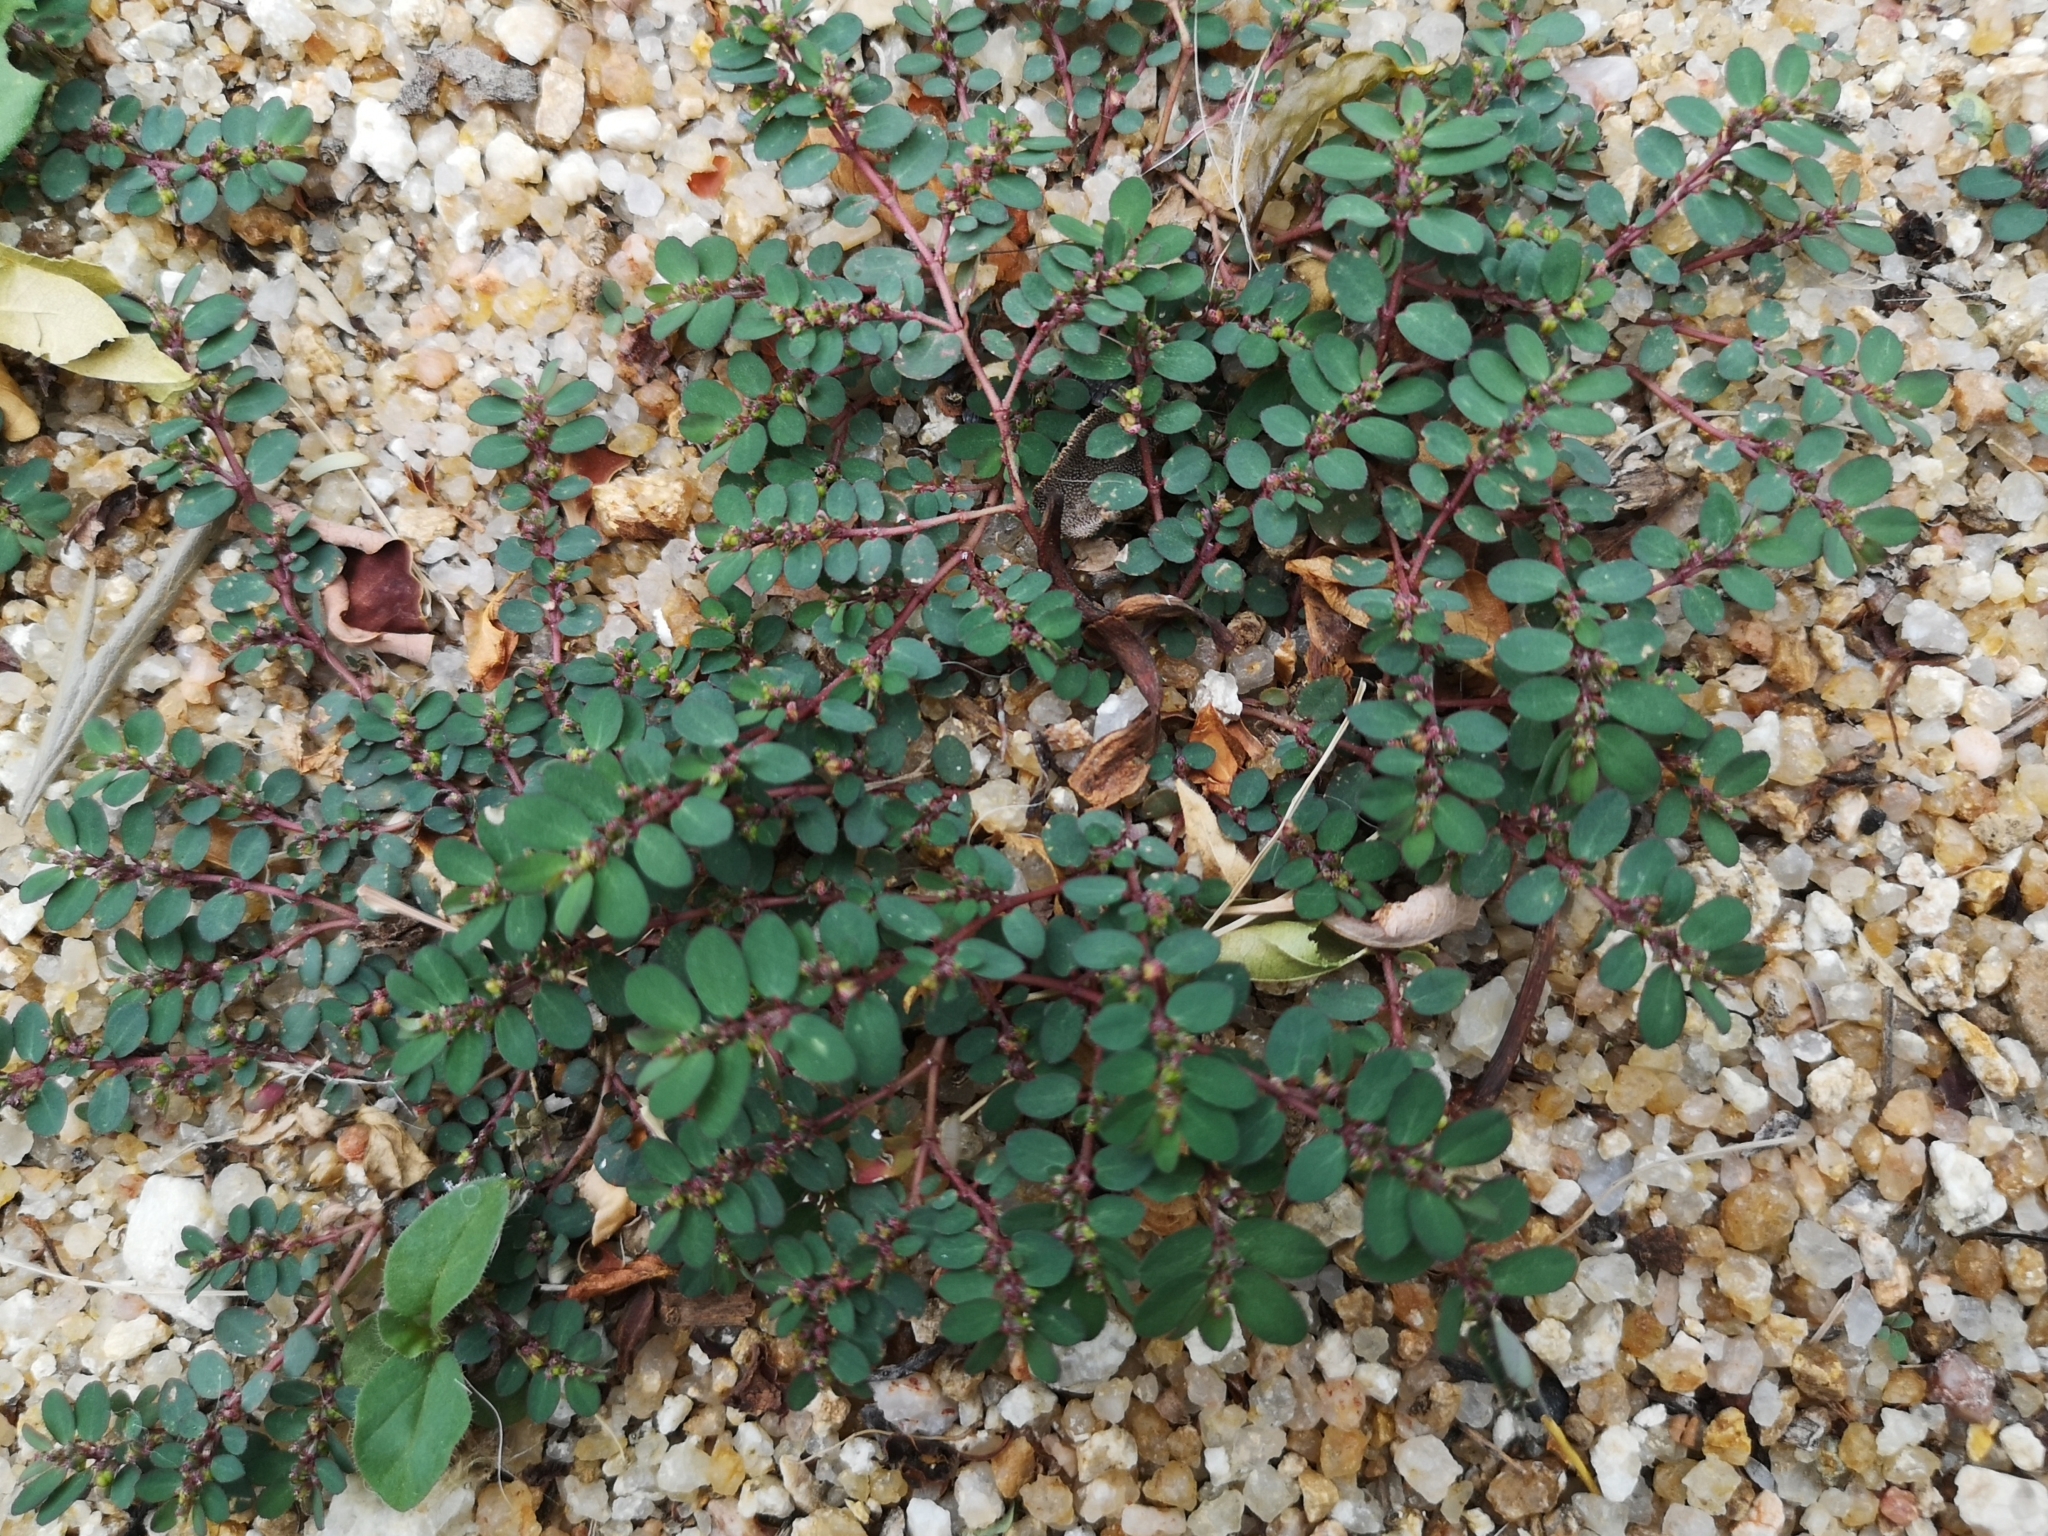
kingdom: Plantae
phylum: Tracheophyta
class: Magnoliopsida
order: Malpighiales
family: Euphorbiaceae
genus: Euphorbia
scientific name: Euphorbia prostrata
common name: Prostrate sandmat
